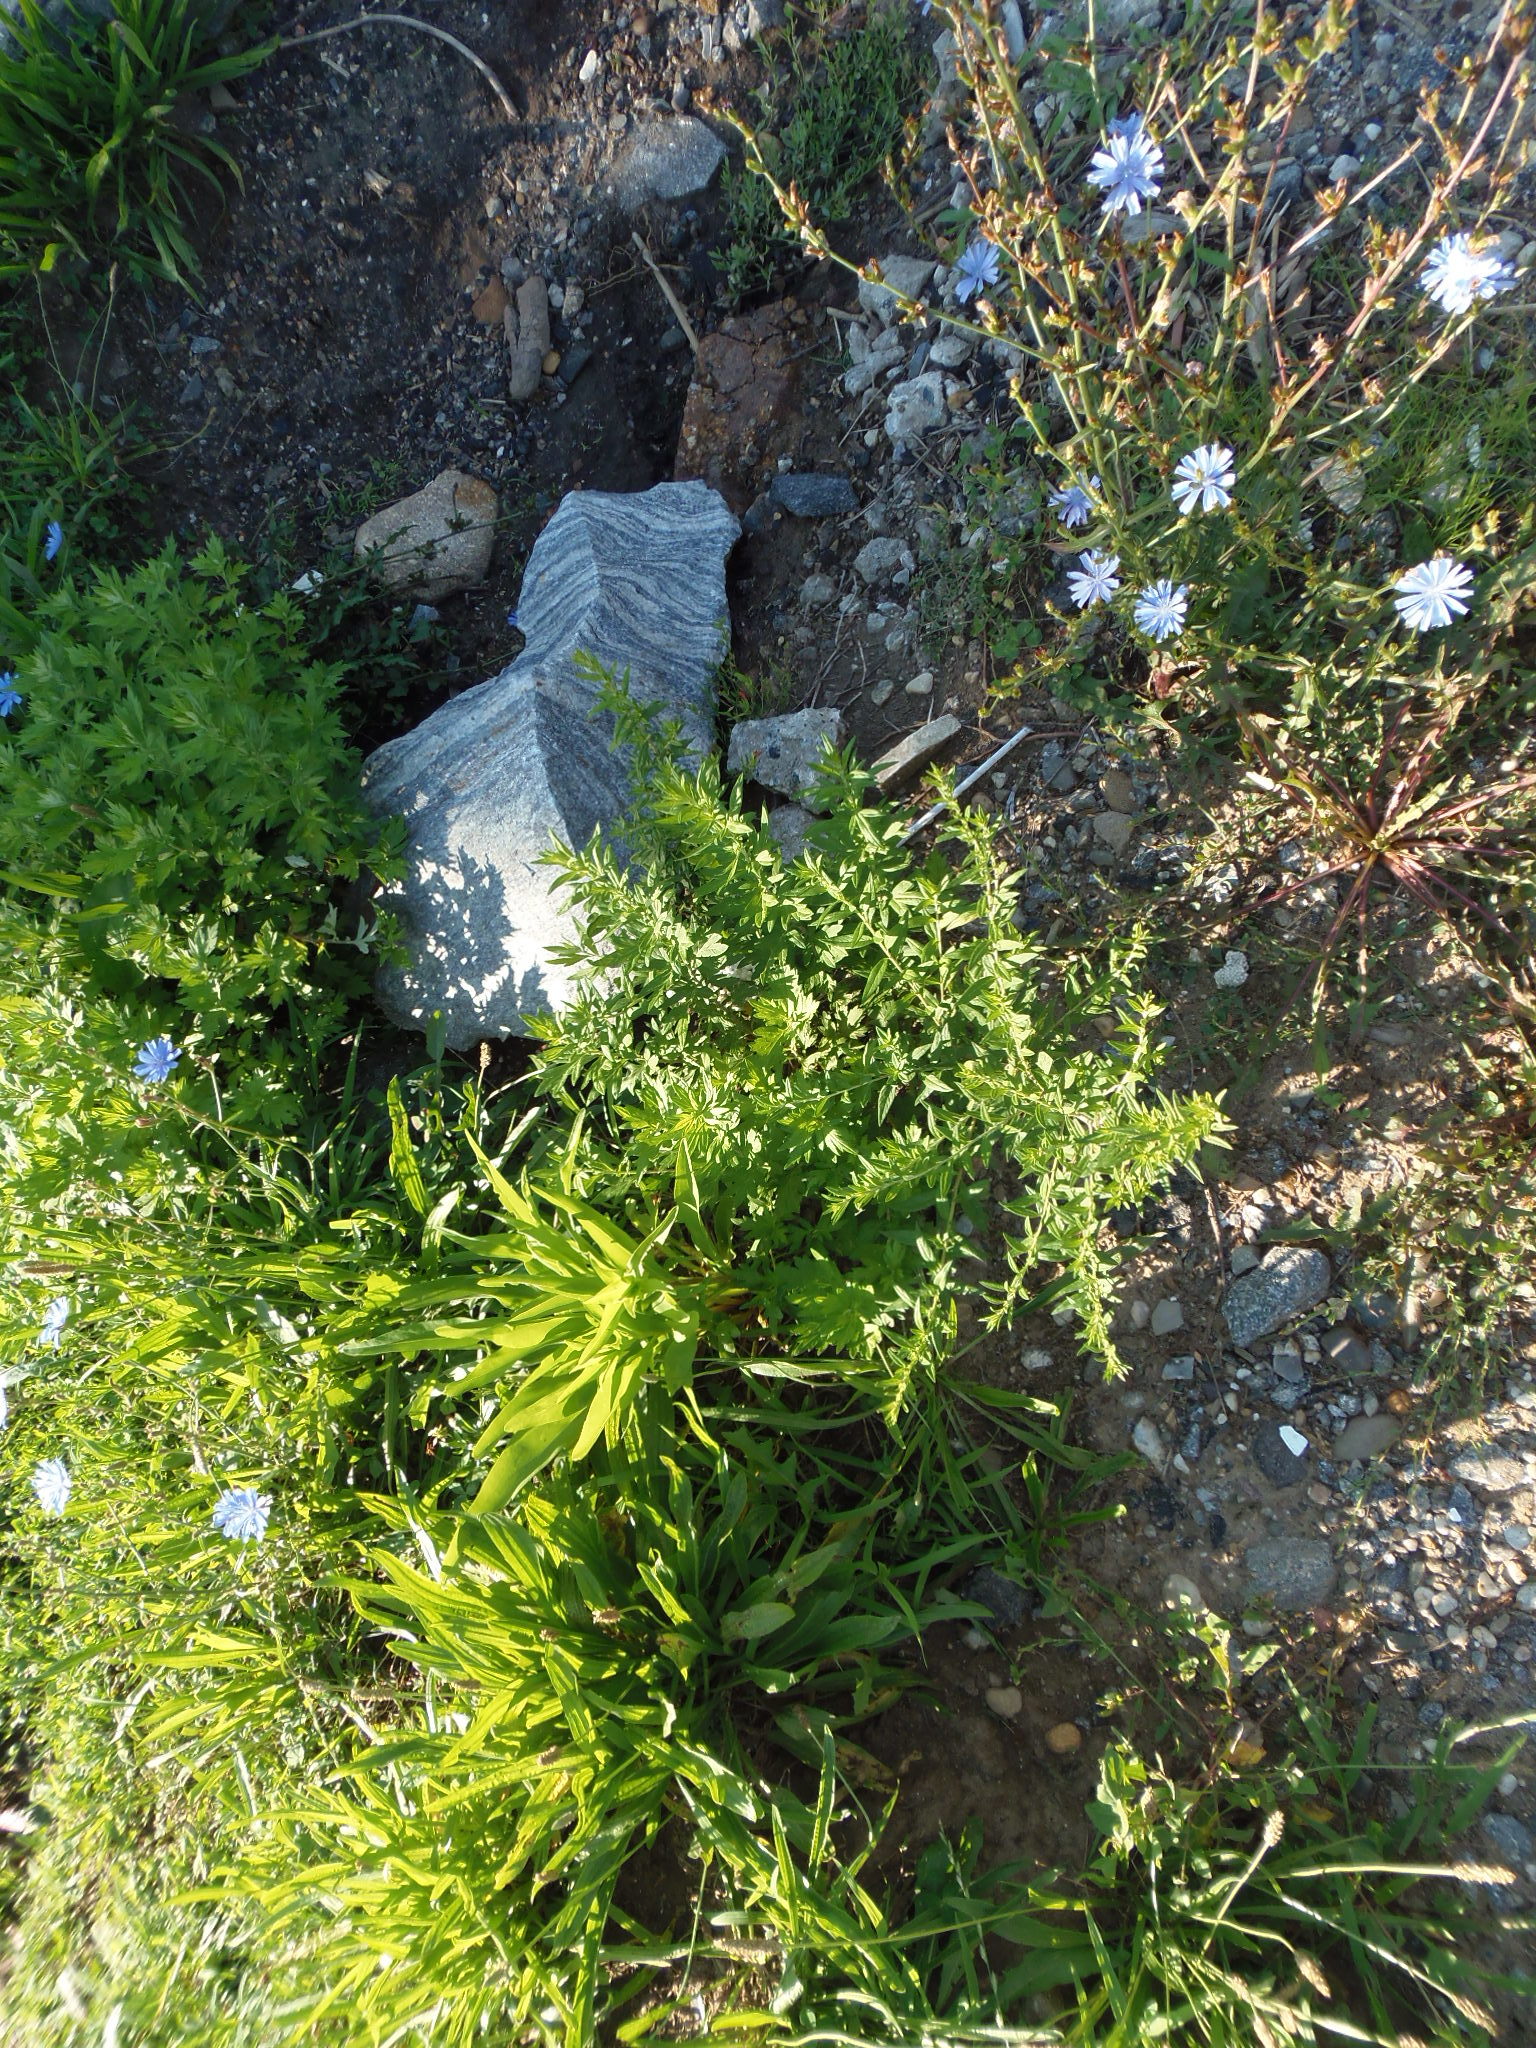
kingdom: Plantae
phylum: Tracheophyta
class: Magnoliopsida
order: Caryophyllales
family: Amaranthaceae
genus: Dysphania
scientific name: Dysphania ambrosioides
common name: Wormseed
